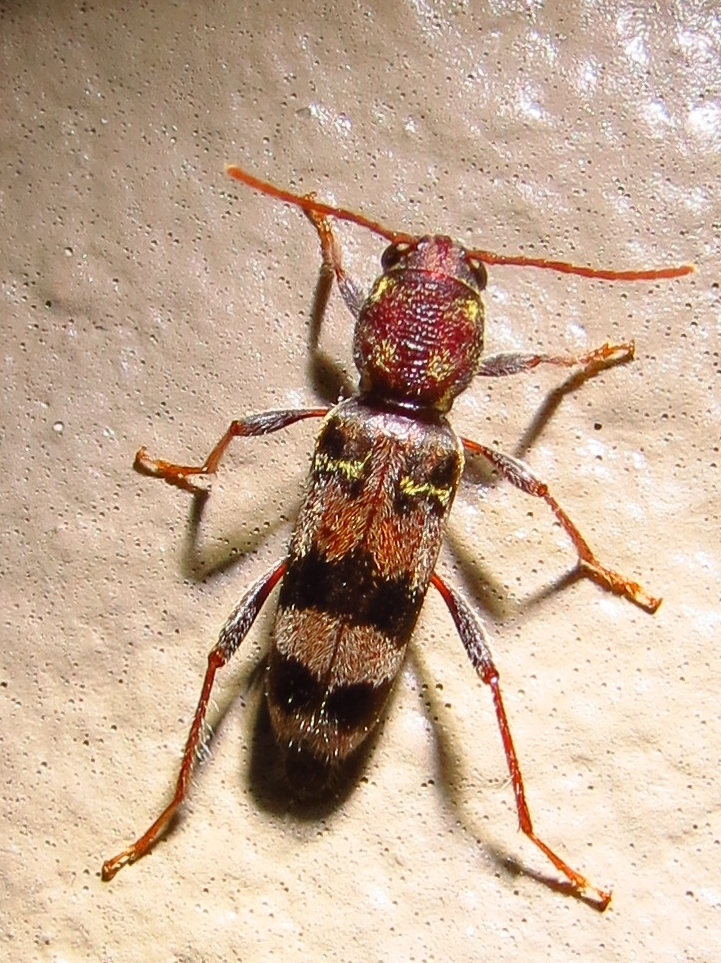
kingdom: Animalia
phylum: Arthropoda
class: Insecta
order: Coleoptera
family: Cerambycidae
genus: Xylotrechus
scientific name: Xylotrechus colonus
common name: Long-horned beetle
